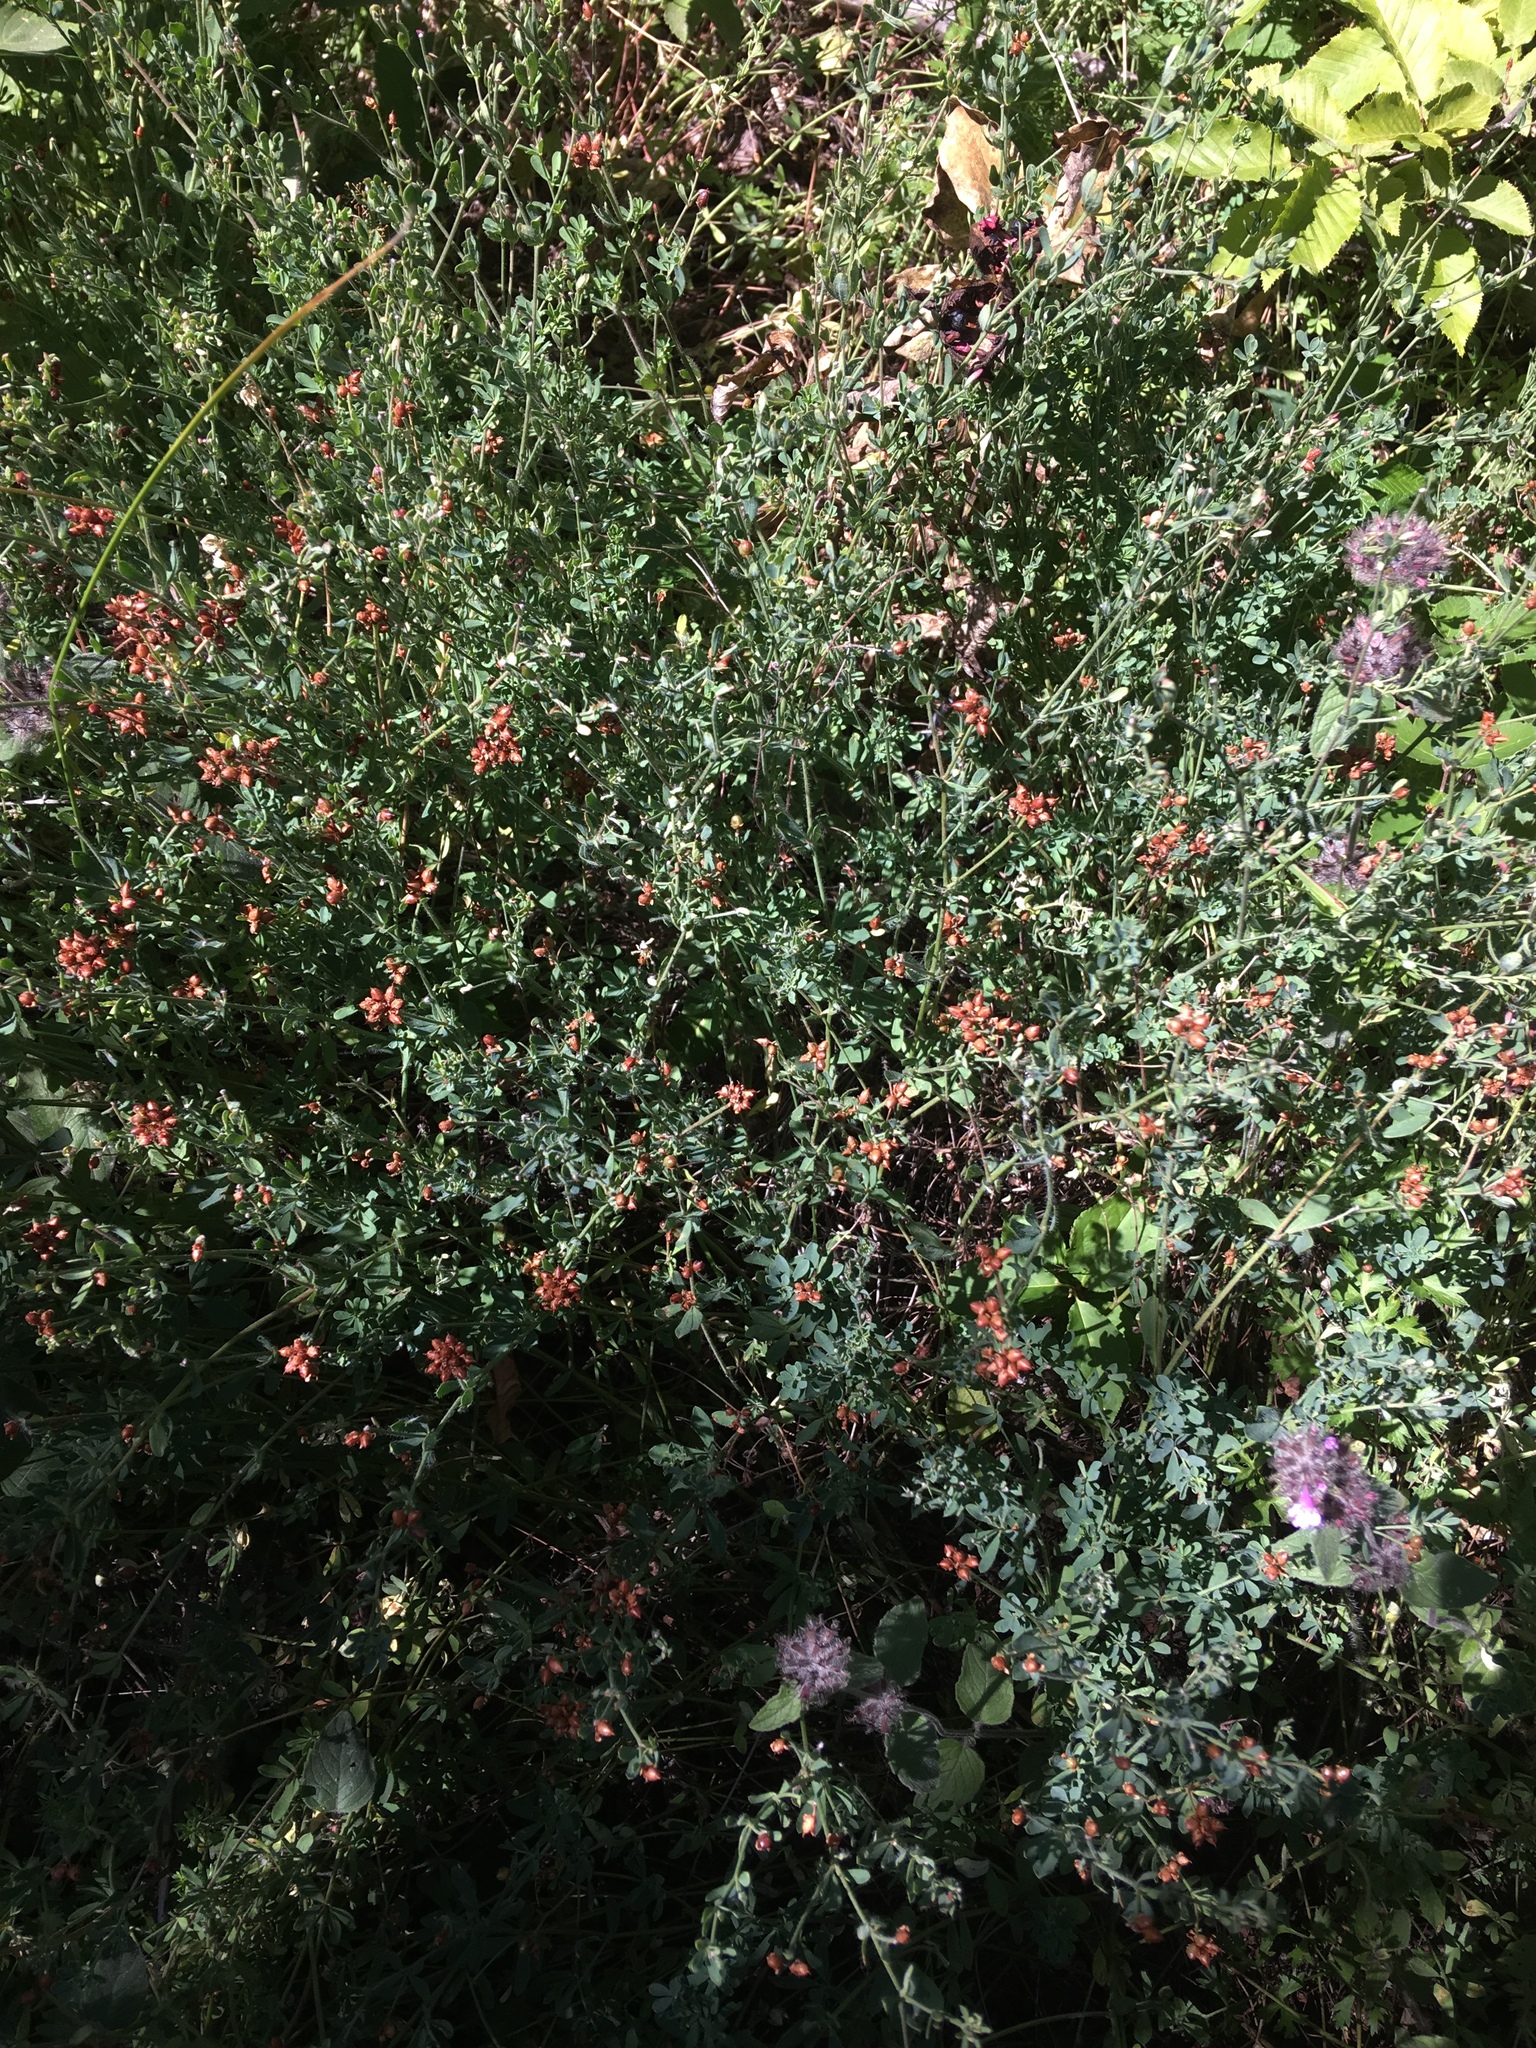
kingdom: Plantae
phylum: Tracheophyta
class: Magnoliopsida
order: Fabales
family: Fabaceae
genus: Lotus
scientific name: Lotus herbaceus
